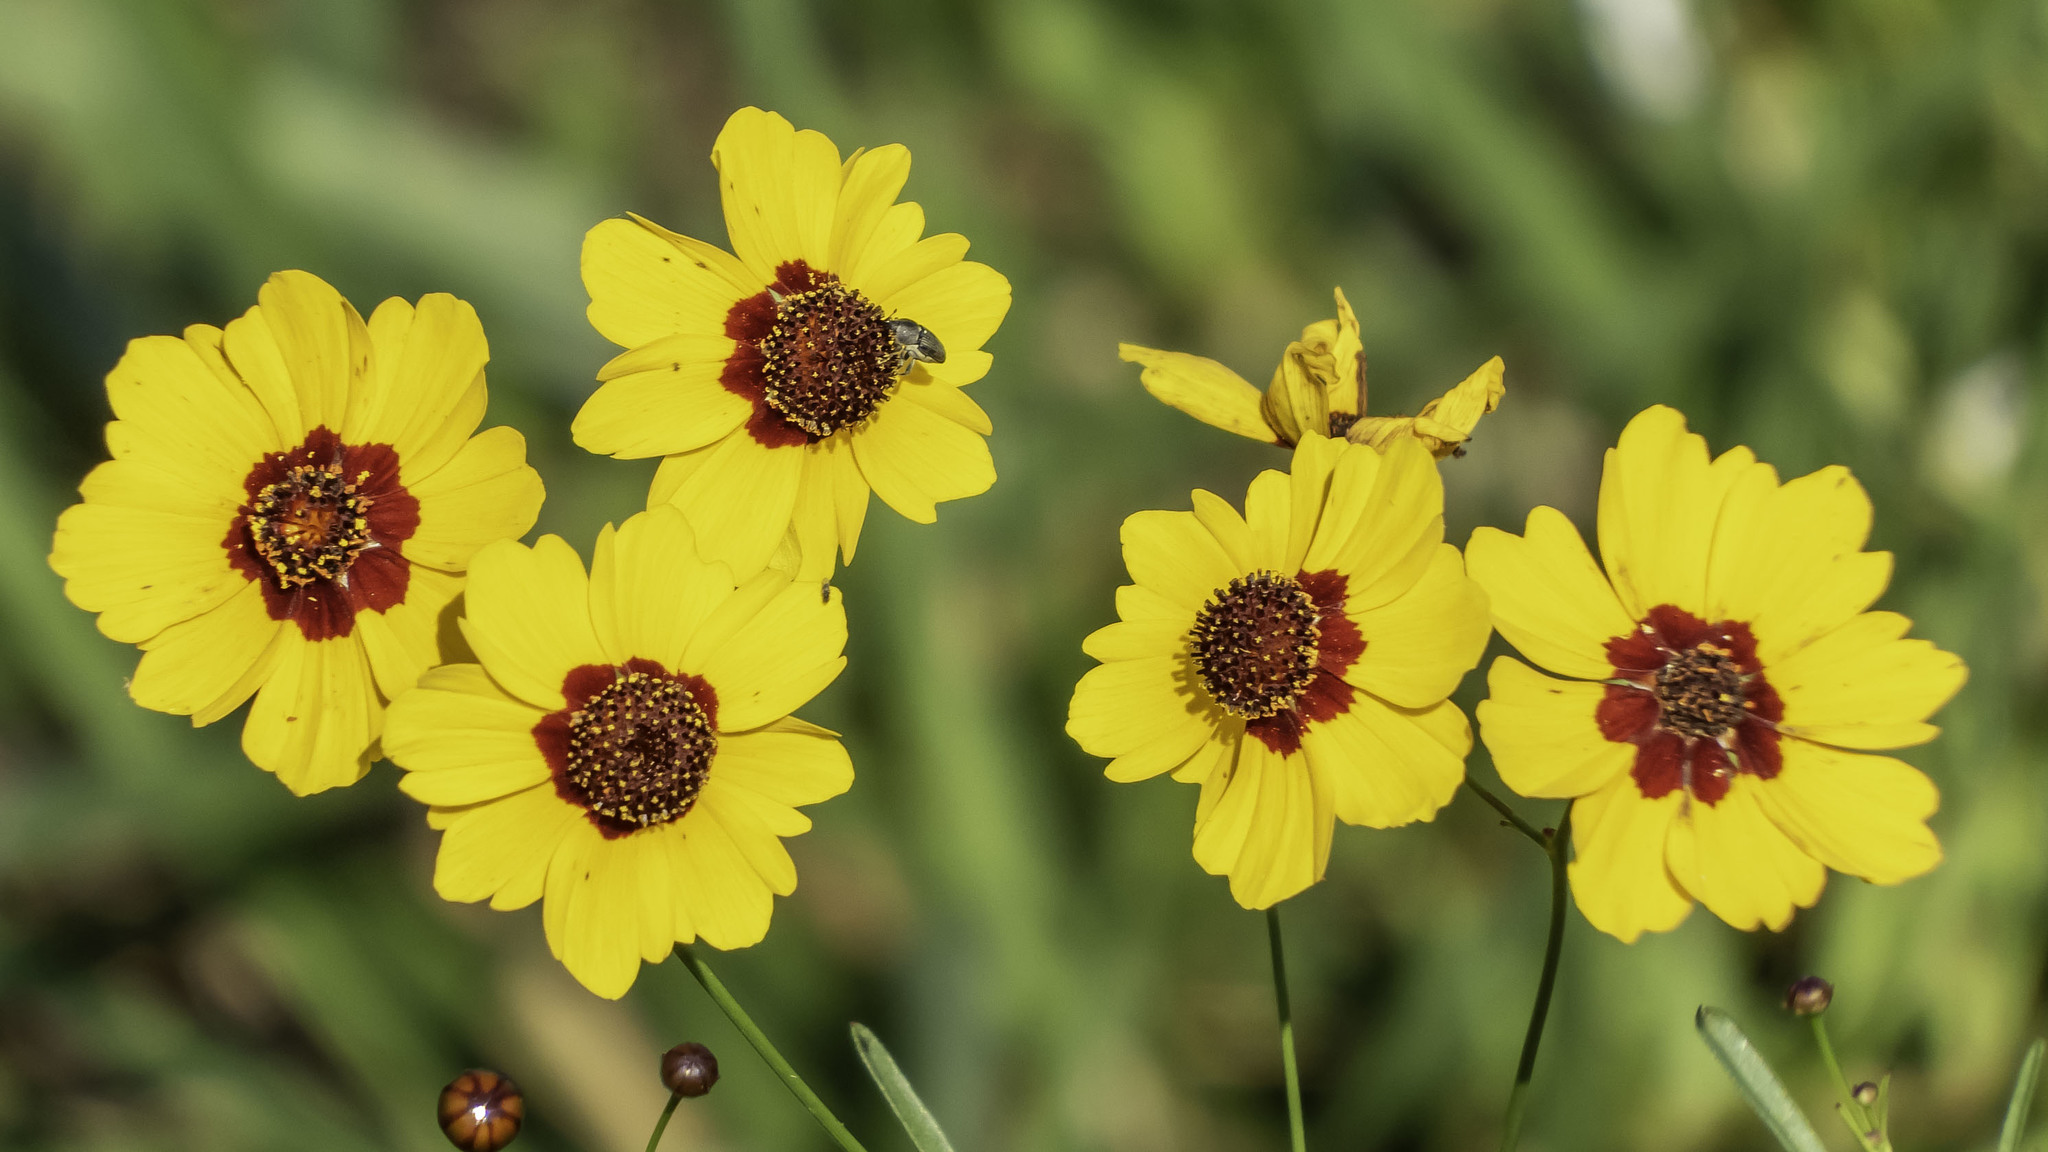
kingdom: Plantae
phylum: Tracheophyta
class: Magnoliopsida
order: Asterales
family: Asteraceae
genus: Coreopsis
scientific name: Coreopsis tinctoria
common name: Garden tickseed
